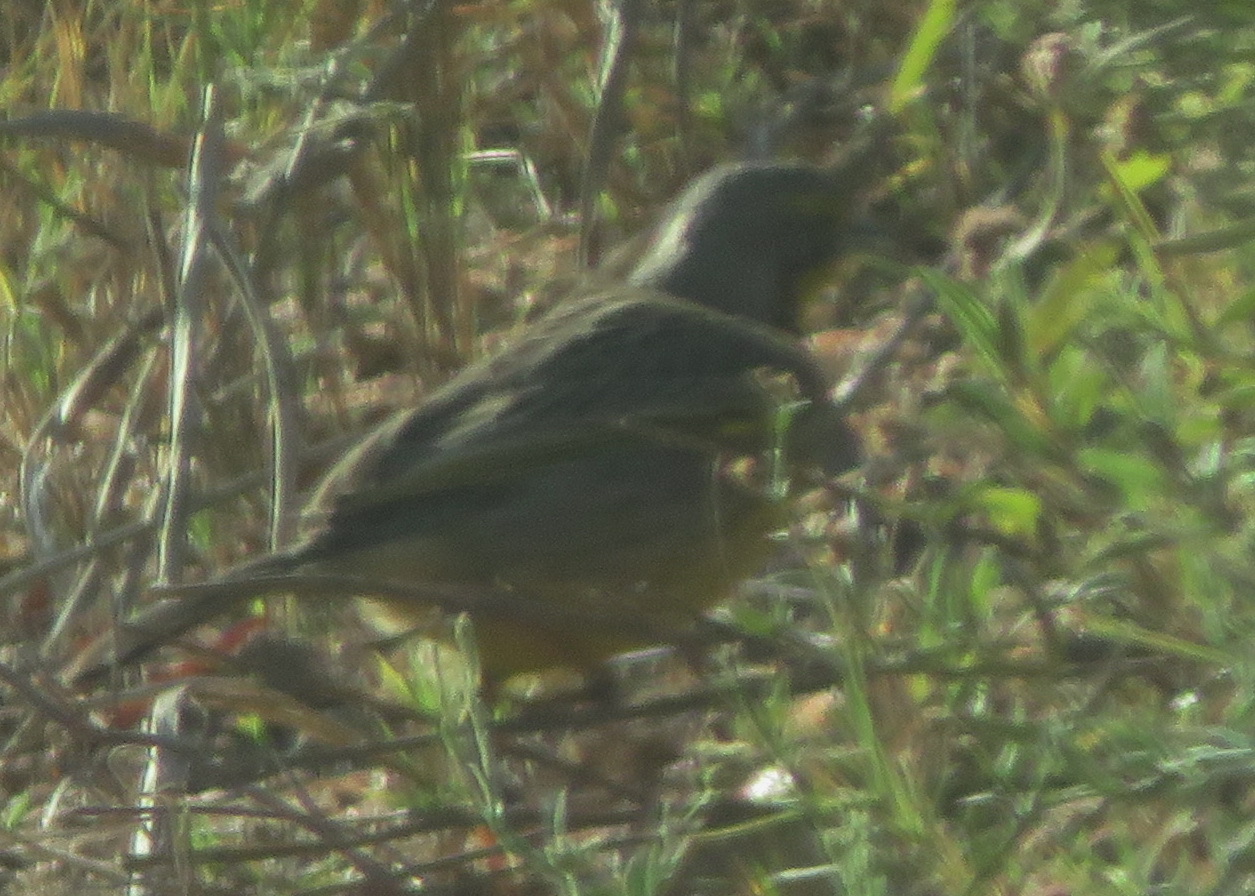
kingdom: Animalia
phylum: Chordata
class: Aves
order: Passeriformes
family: Motacillidae
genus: Macronyx
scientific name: Macronyx croceus
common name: Yellow-throated longclaw
